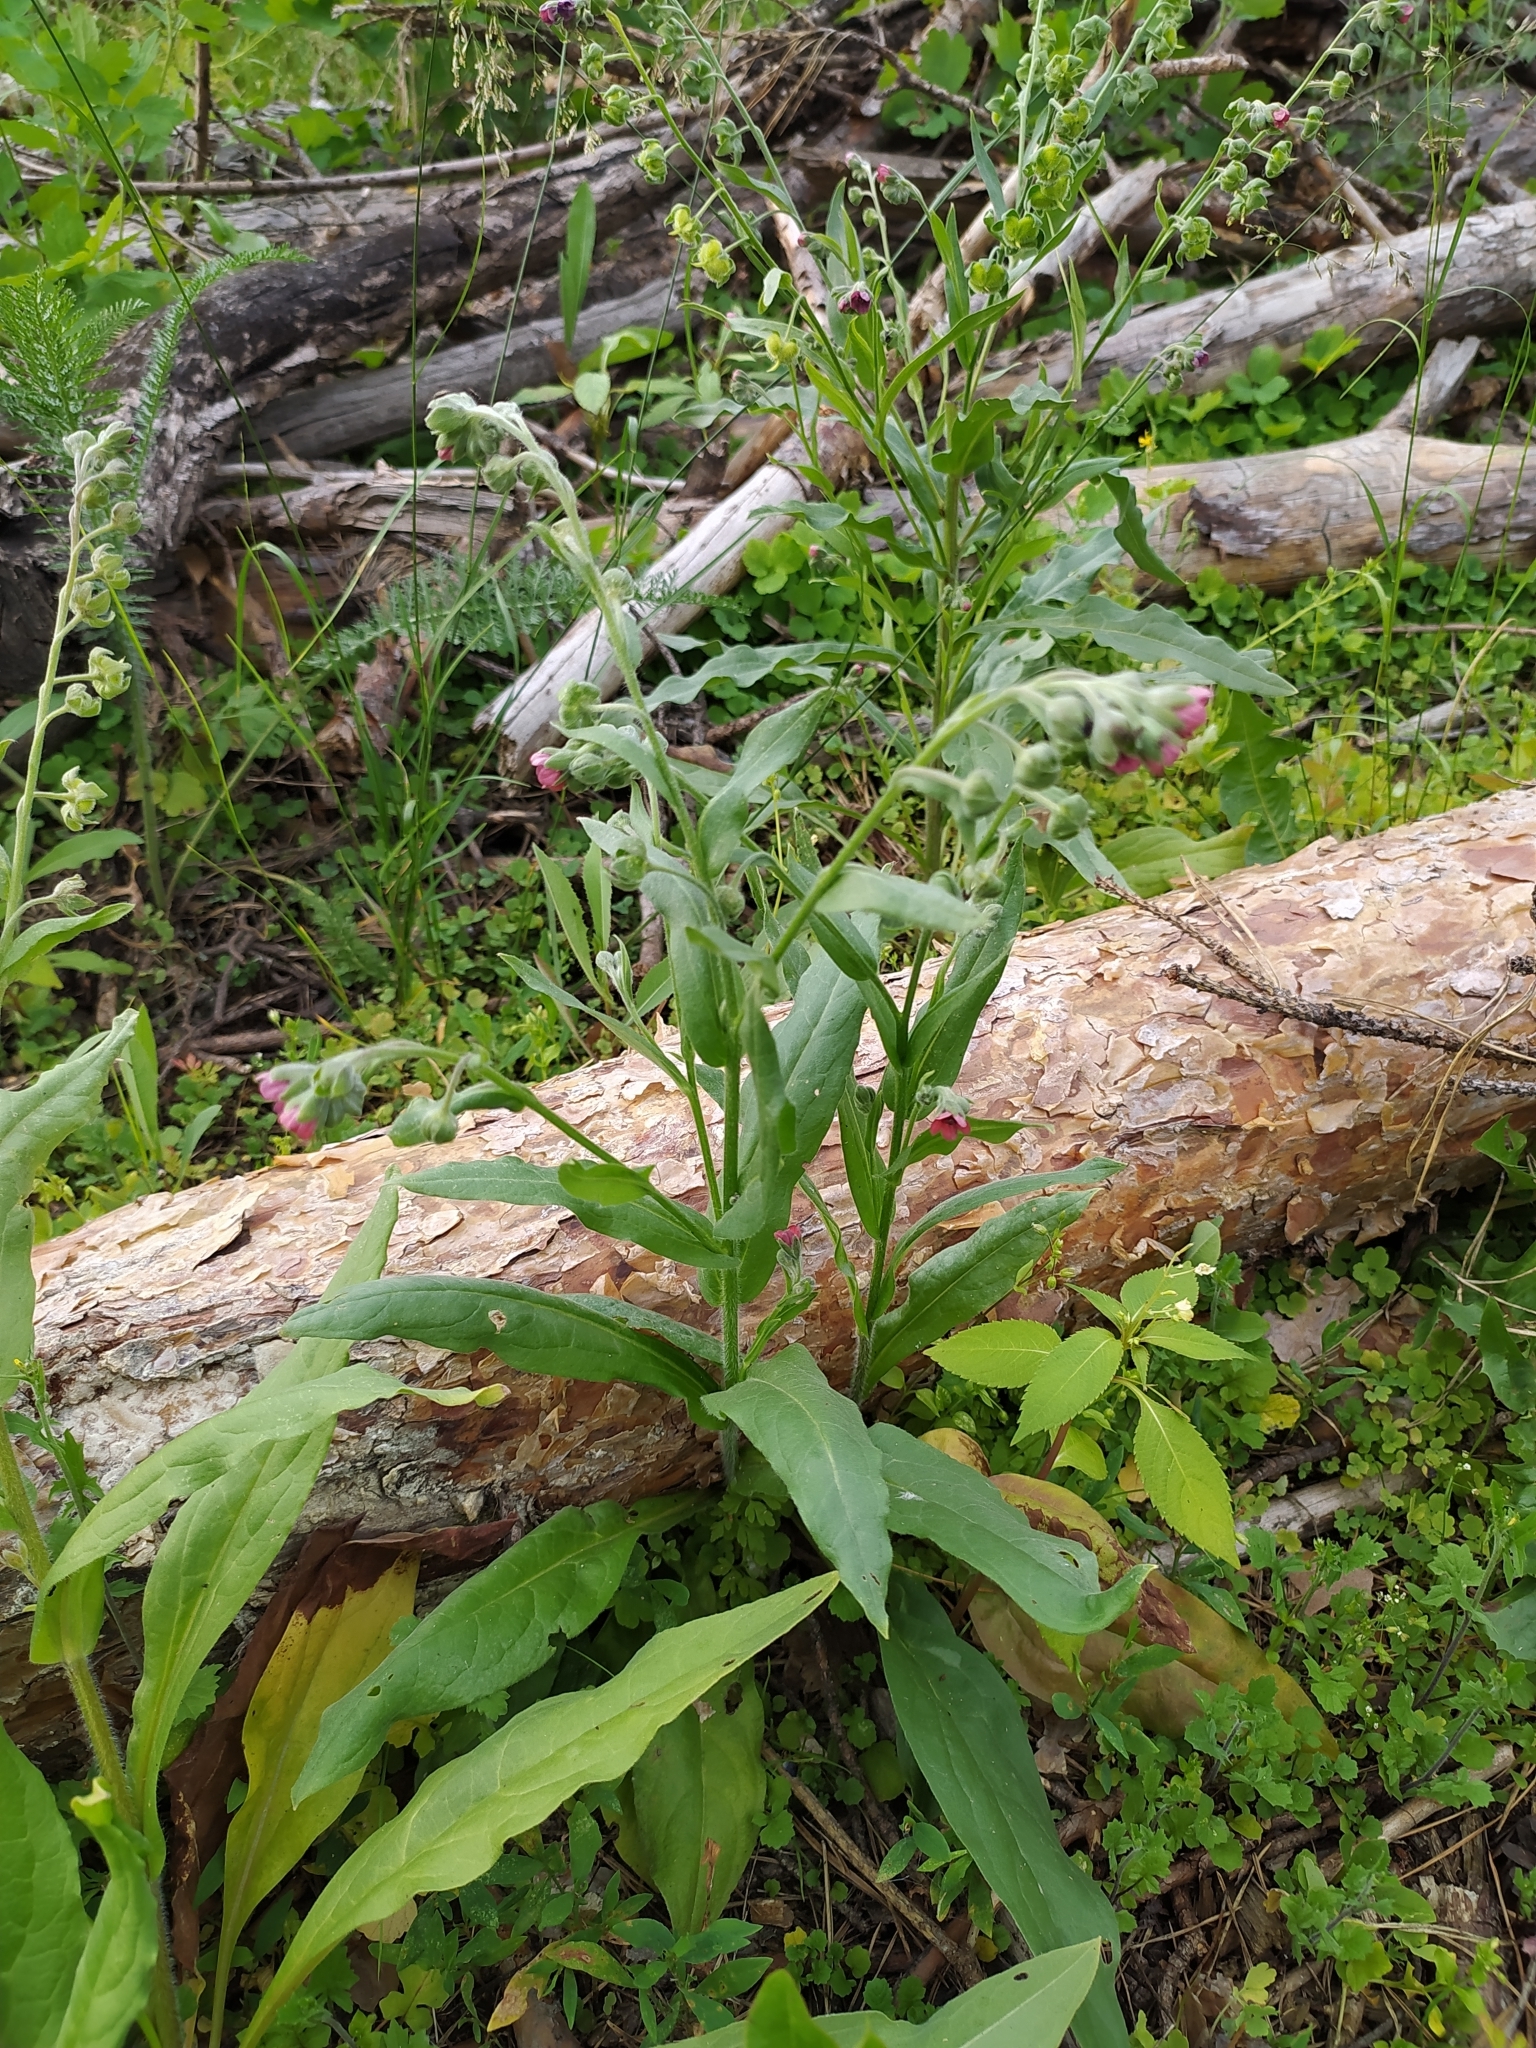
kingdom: Plantae
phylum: Tracheophyta
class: Magnoliopsida
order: Boraginales
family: Boraginaceae
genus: Cynoglossum
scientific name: Cynoglossum officinale
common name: Hound's-tongue
